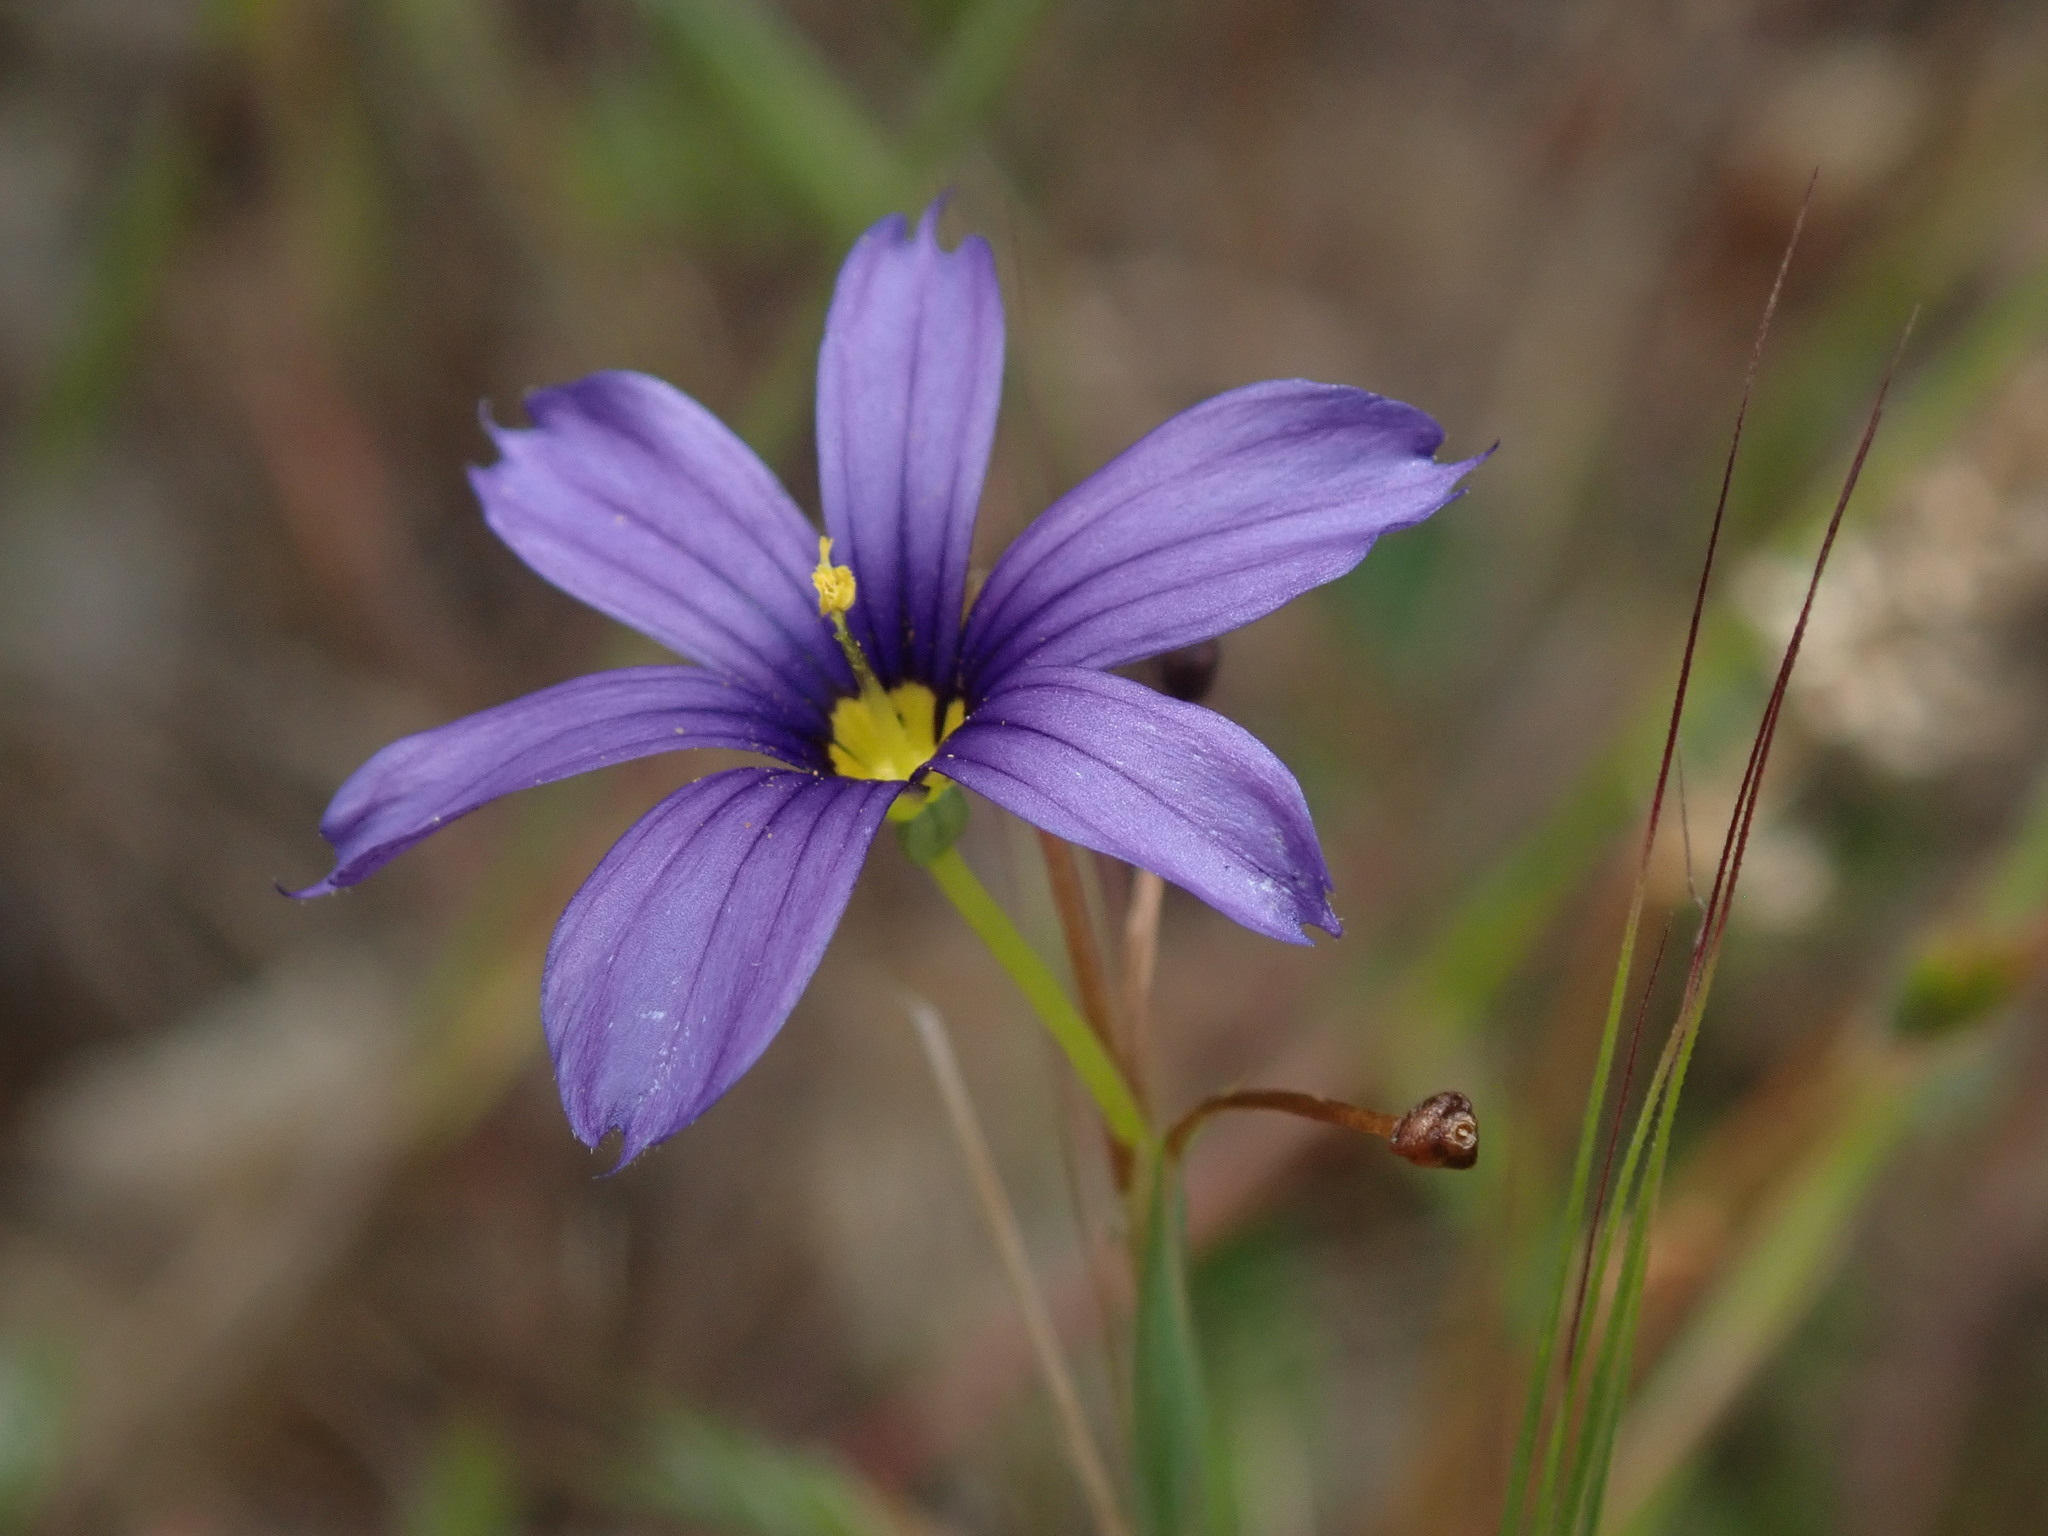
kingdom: Plantae
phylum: Tracheophyta
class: Liliopsida
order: Asparagales
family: Iridaceae
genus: Sisyrinchium
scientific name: Sisyrinchium bellum
